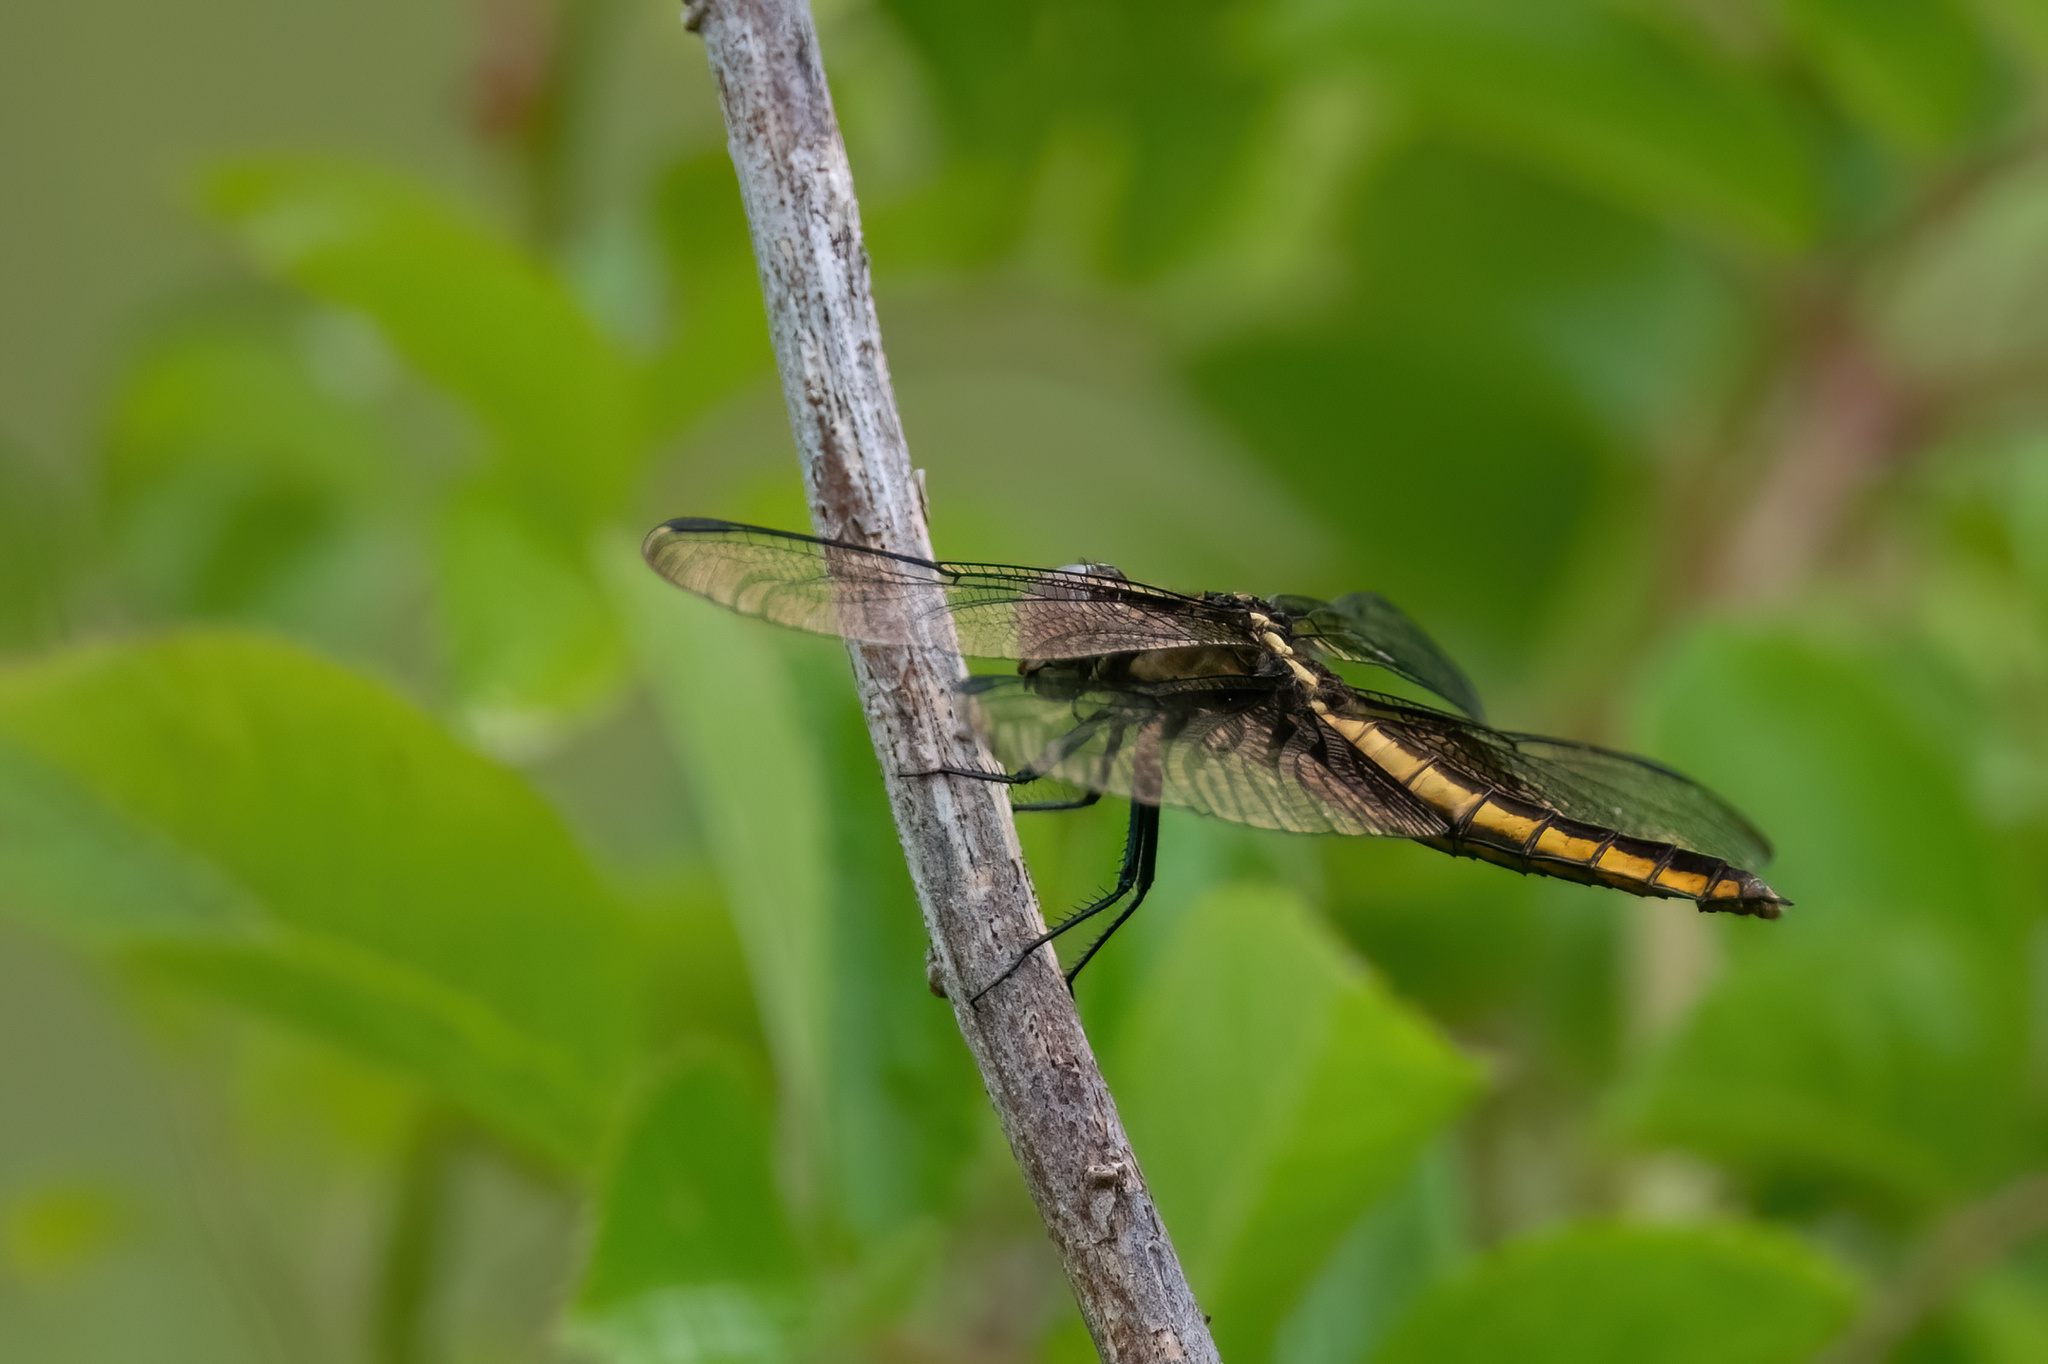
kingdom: Animalia
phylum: Arthropoda
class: Insecta
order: Odonata
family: Libellulidae
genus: Libellula
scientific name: Libellula luctuosa
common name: Widow skimmer
